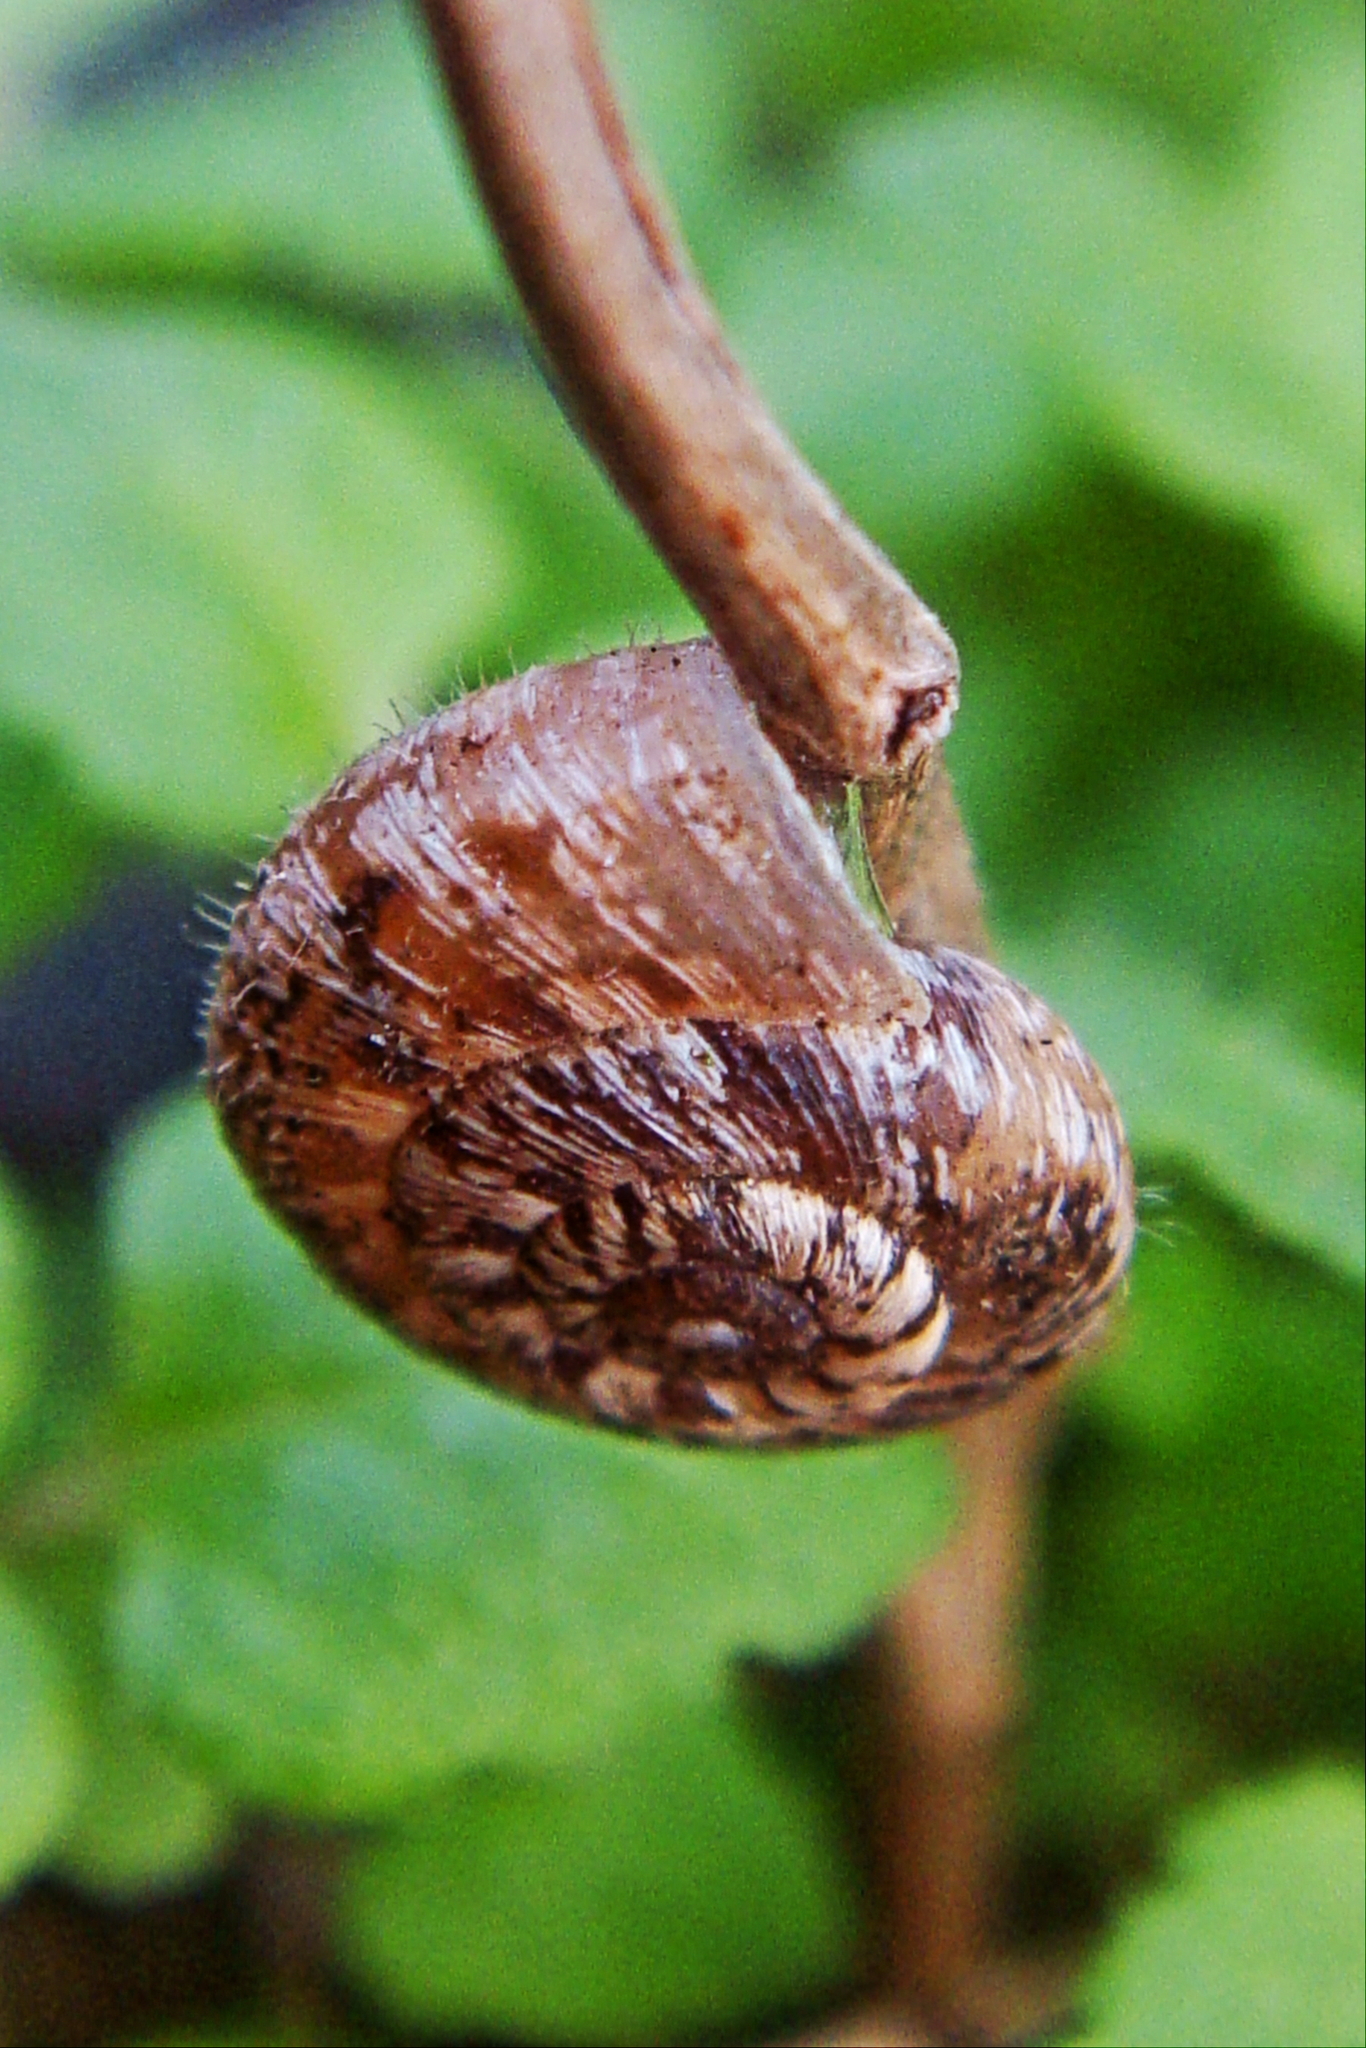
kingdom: Animalia
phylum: Mollusca
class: Gastropoda
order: Stylommatophora
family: Geomitridae
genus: Xerotricha
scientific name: Xerotricha conspurcata
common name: Snail
